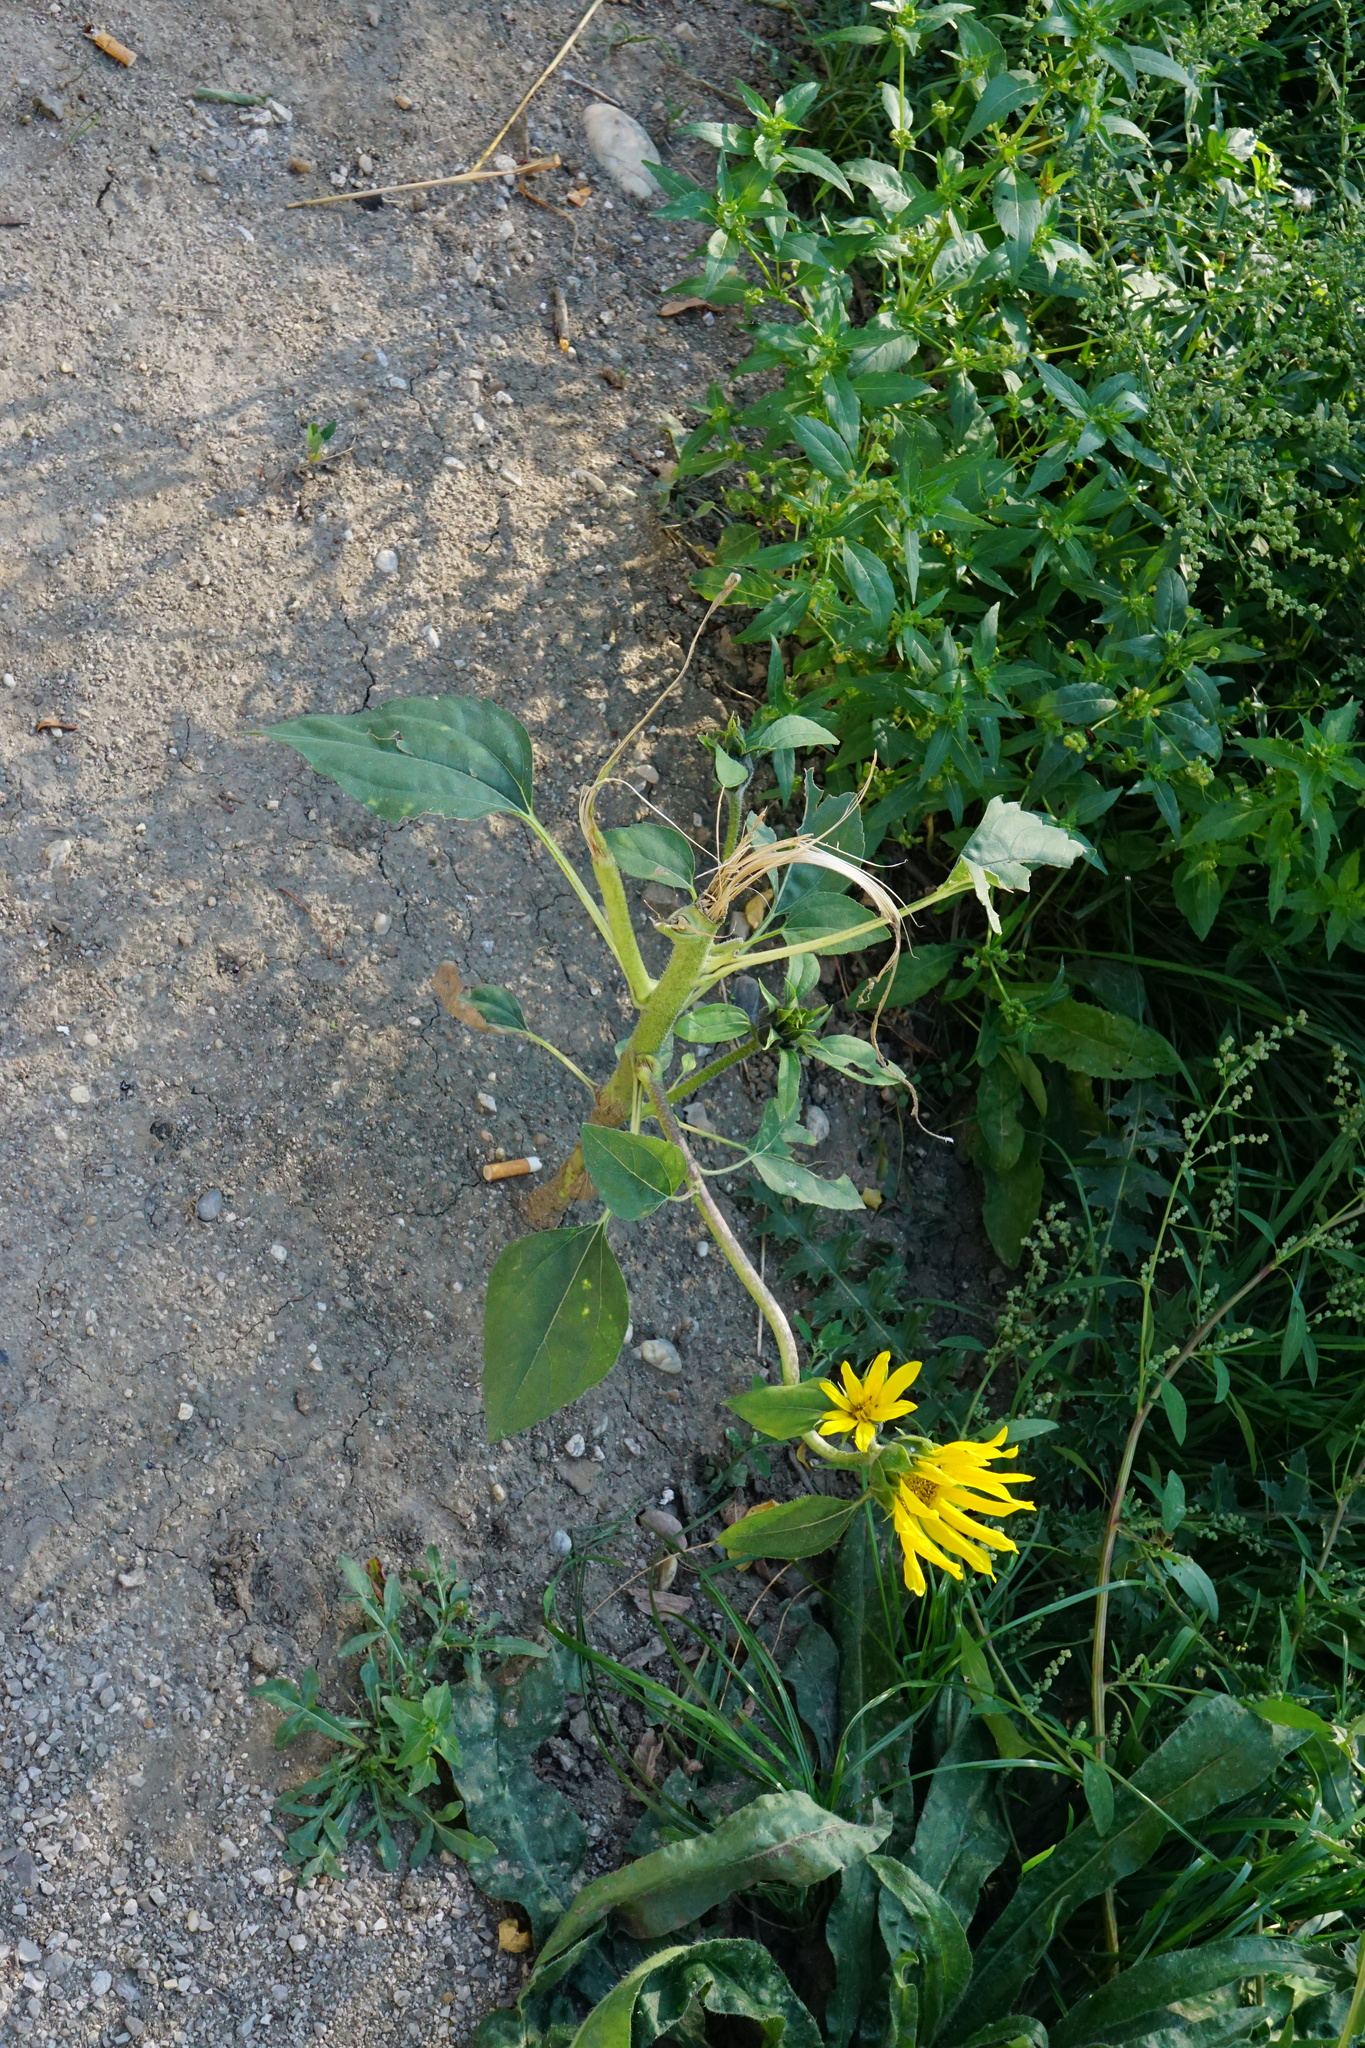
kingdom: Plantae
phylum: Tracheophyta
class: Magnoliopsida
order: Asterales
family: Asteraceae
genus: Helianthus
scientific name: Helianthus annuus
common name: Sunflower
